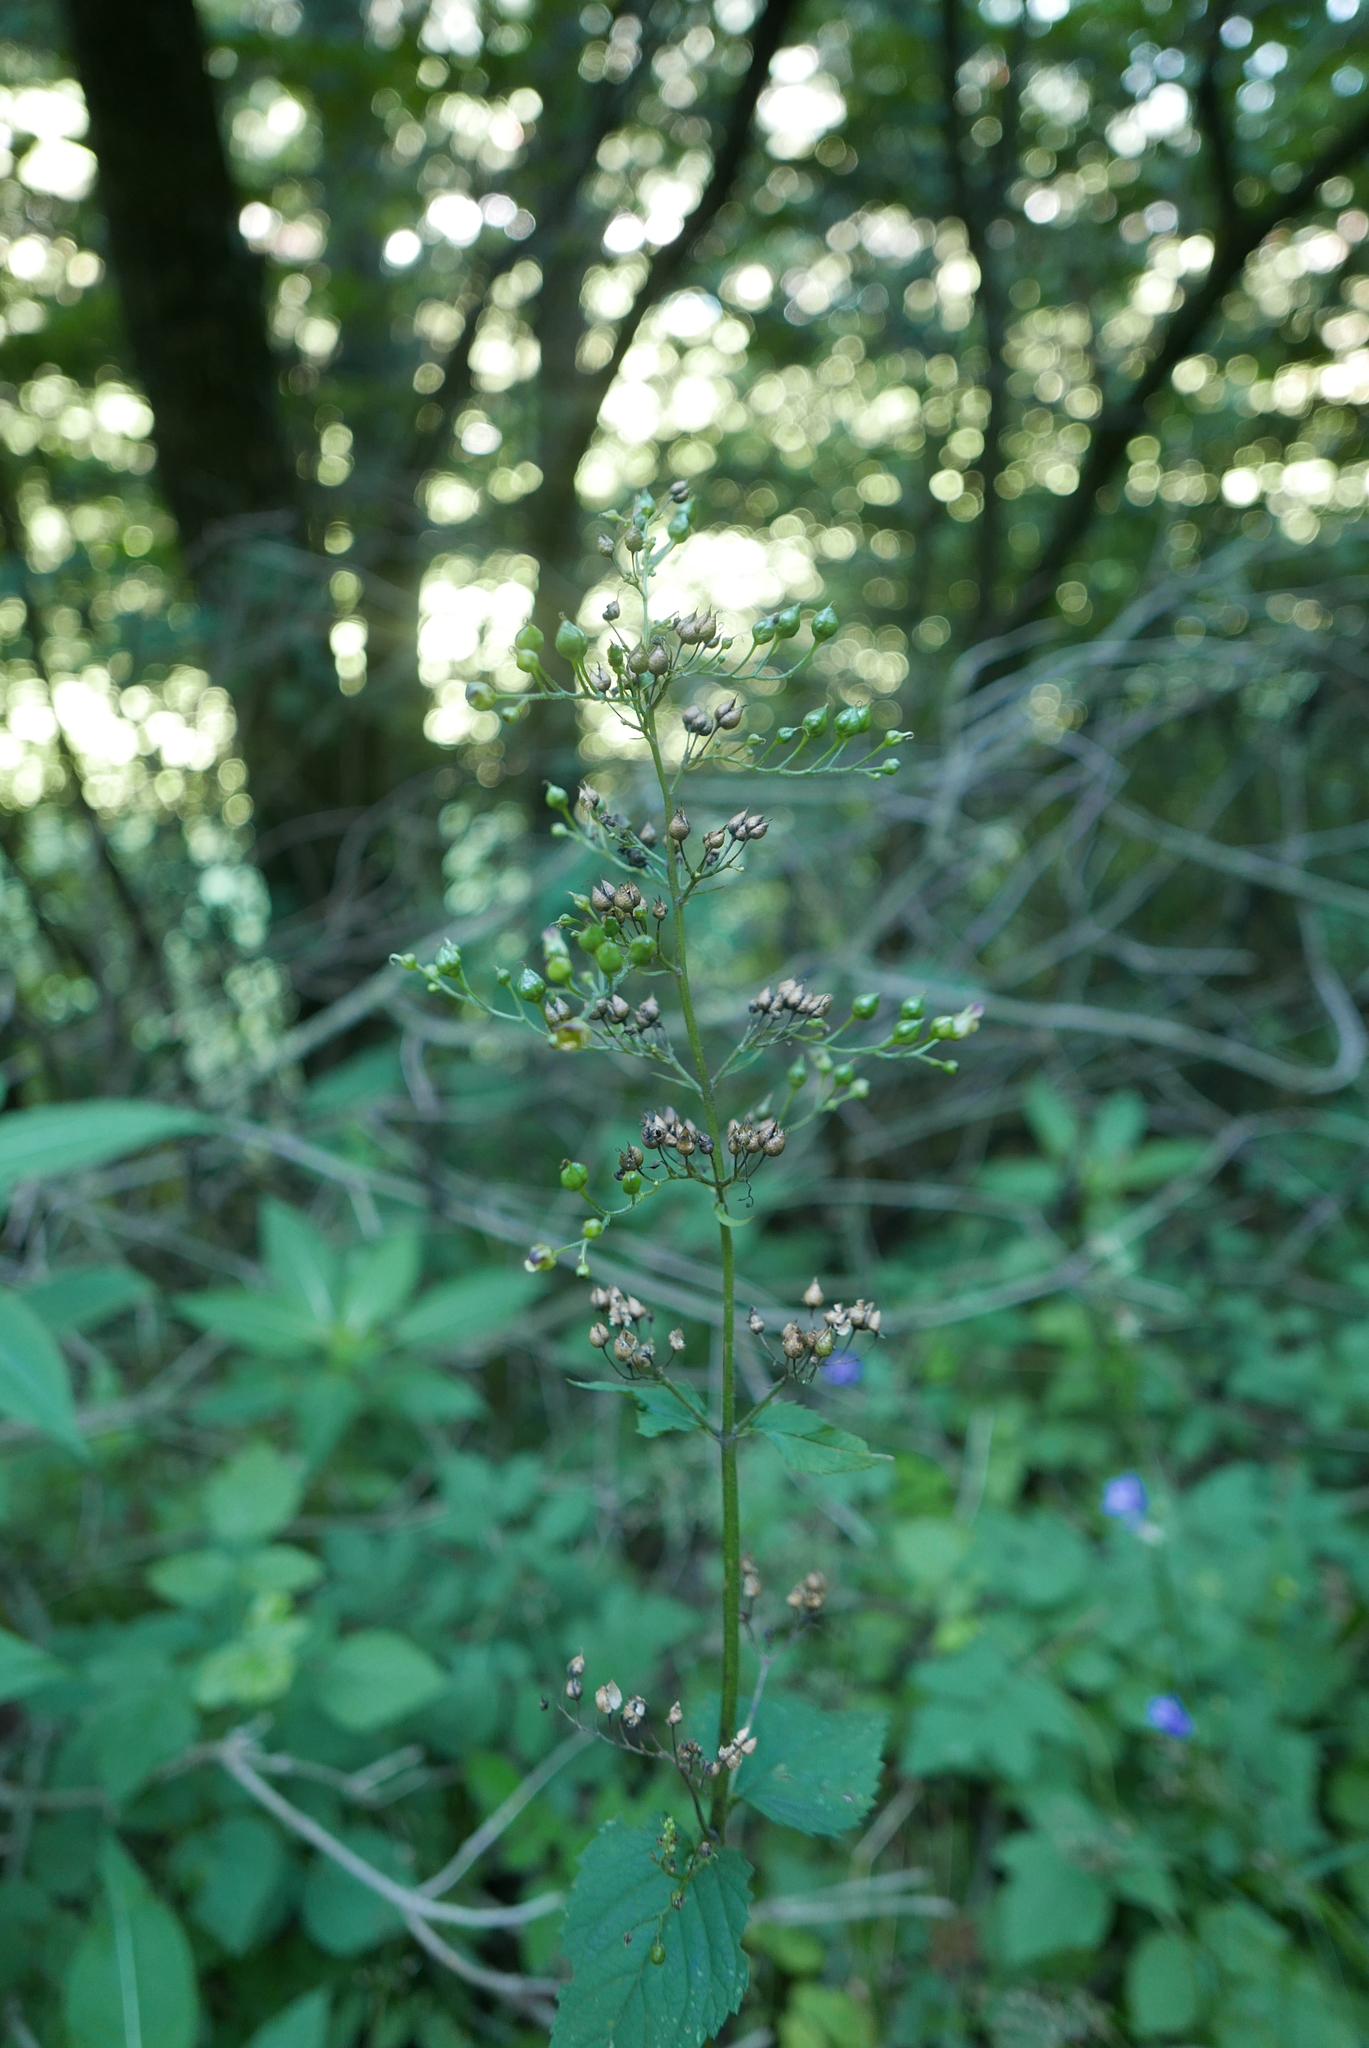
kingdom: Plantae
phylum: Tracheophyta
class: Magnoliopsida
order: Lamiales
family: Scrophulariaceae
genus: Scrophularia
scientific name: Scrophularia nodosa
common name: Common figwort
